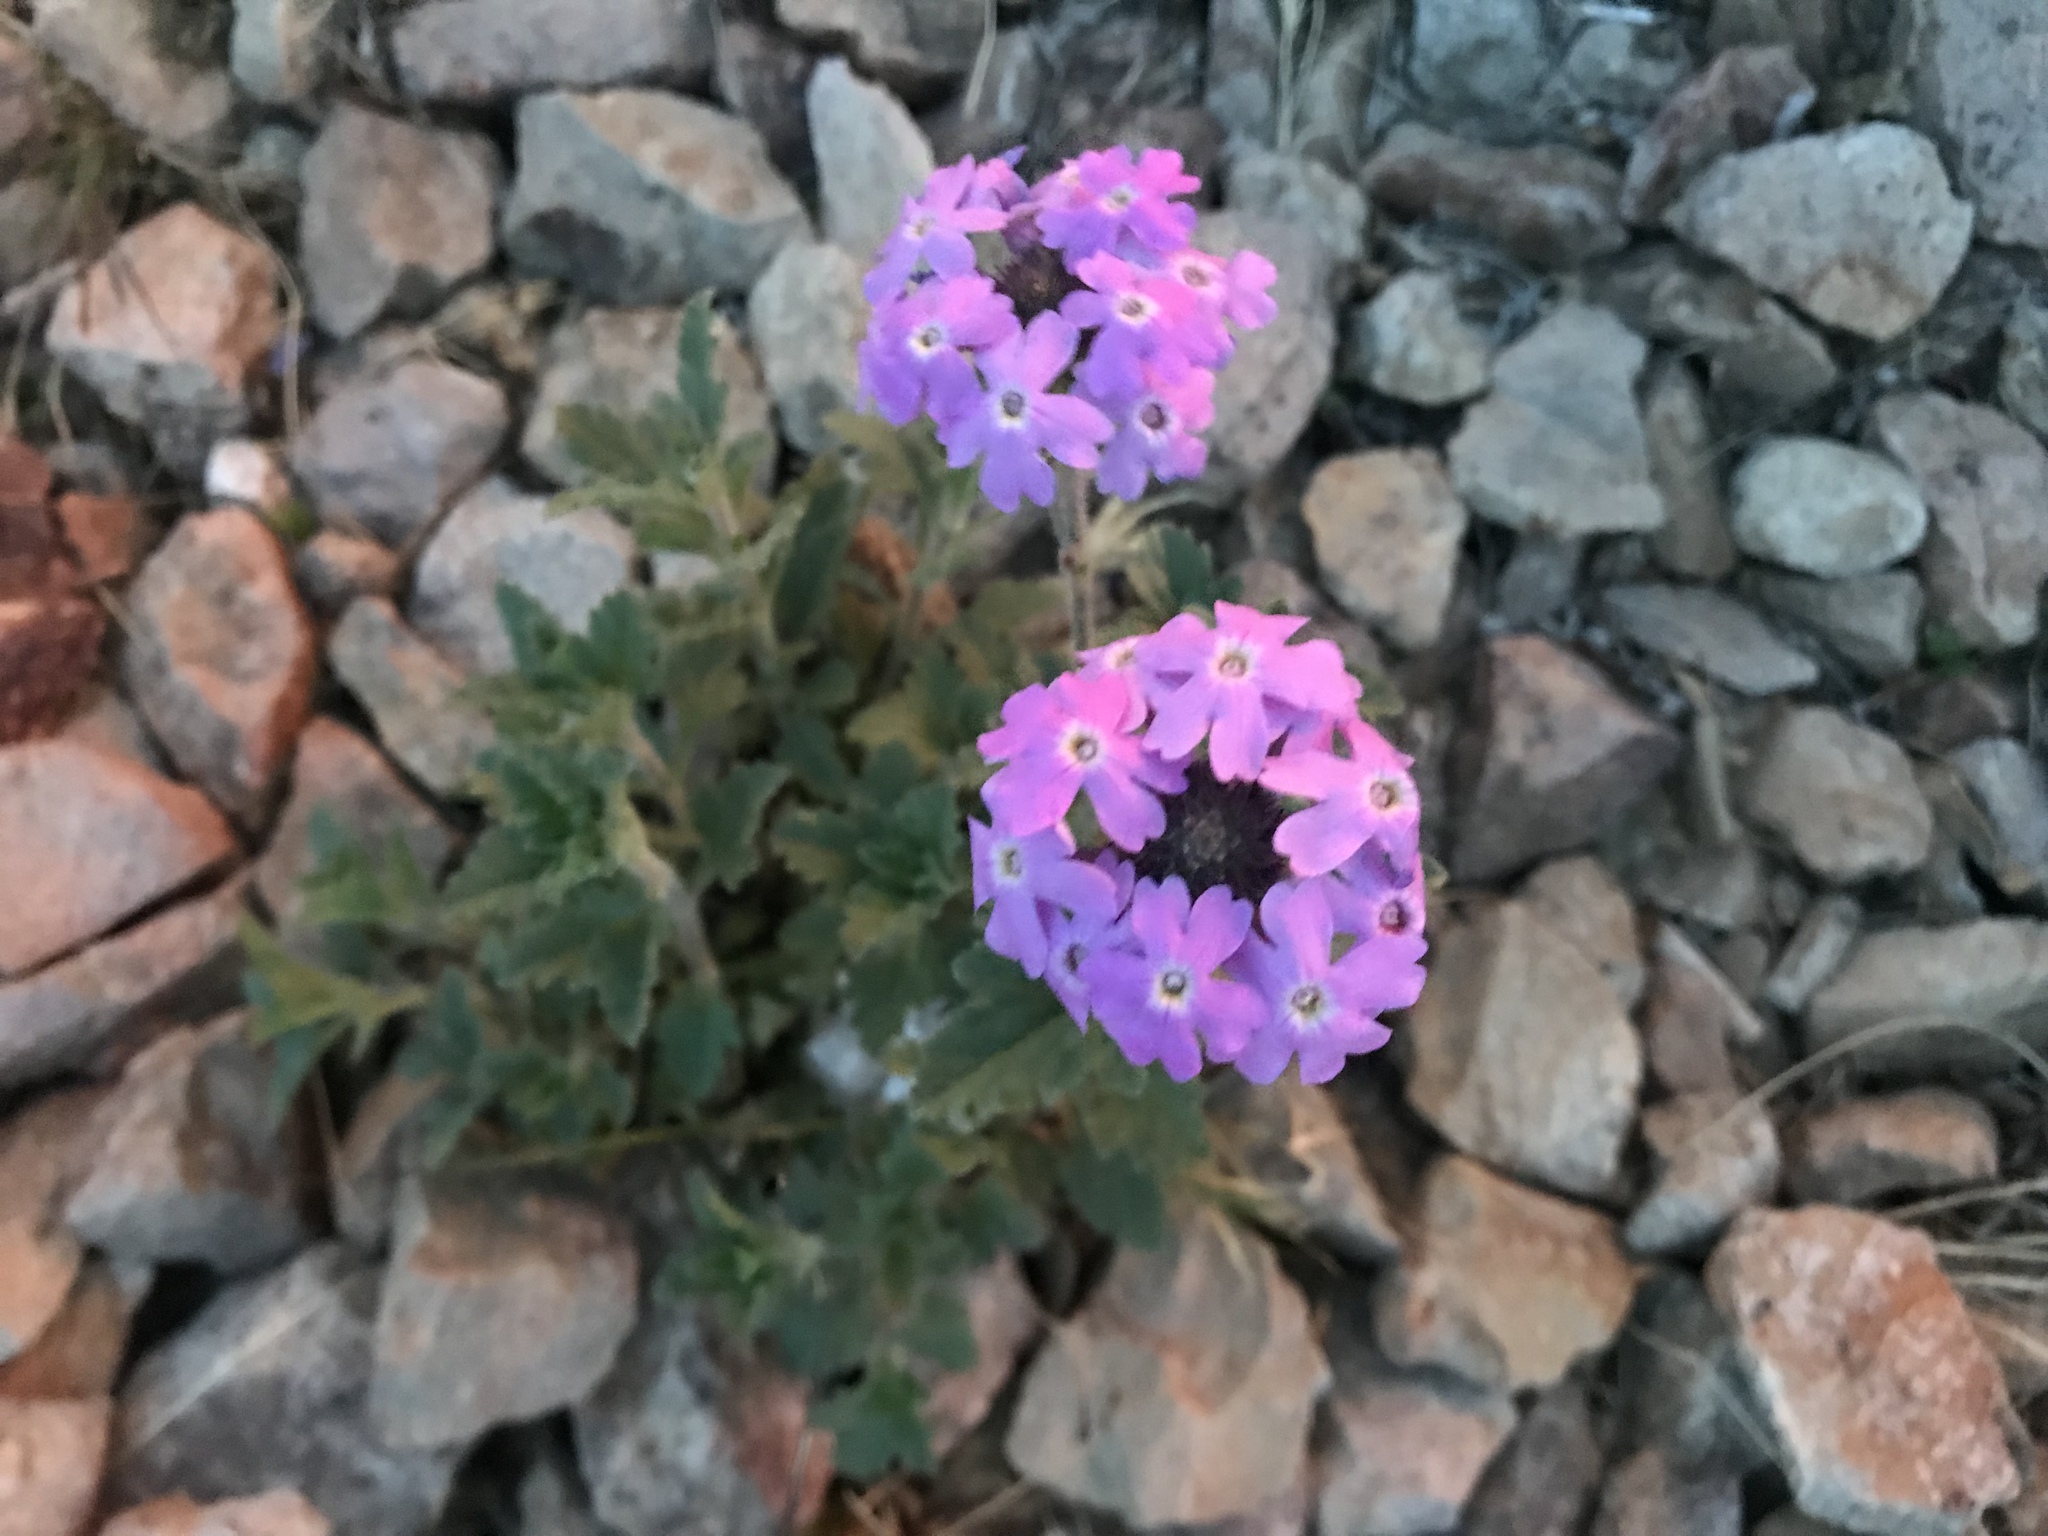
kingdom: Plantae
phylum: Tracheophyta
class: Magnoliopsida
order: Lamiales
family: Verbenaceae
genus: Verbena
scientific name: Verbena gooddingii
